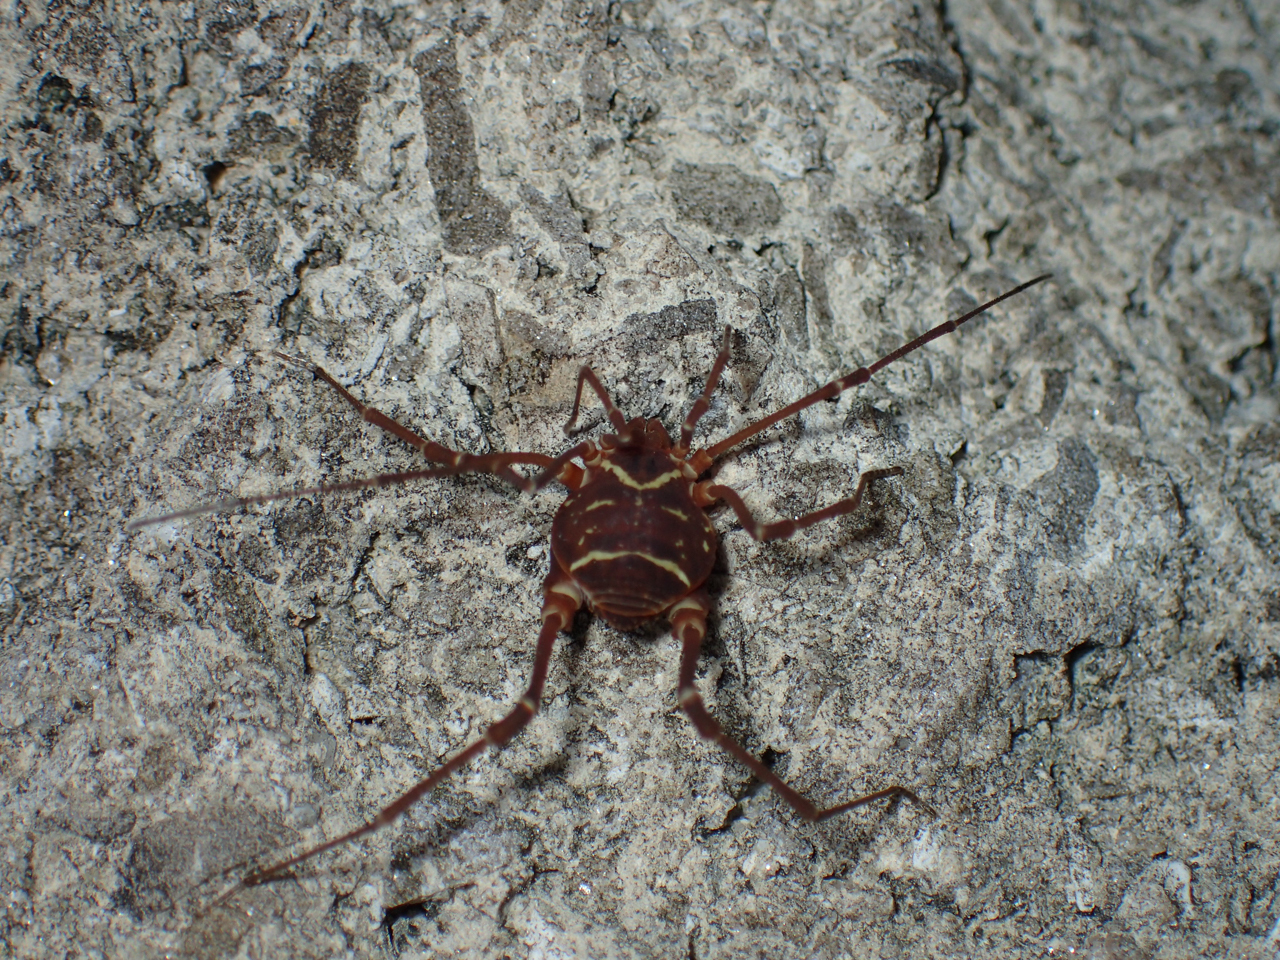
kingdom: Animalia
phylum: Arthropoda
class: Arachnida
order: Opiliones
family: Cosmetidae
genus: Libitioides
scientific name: Libitioides sayi
